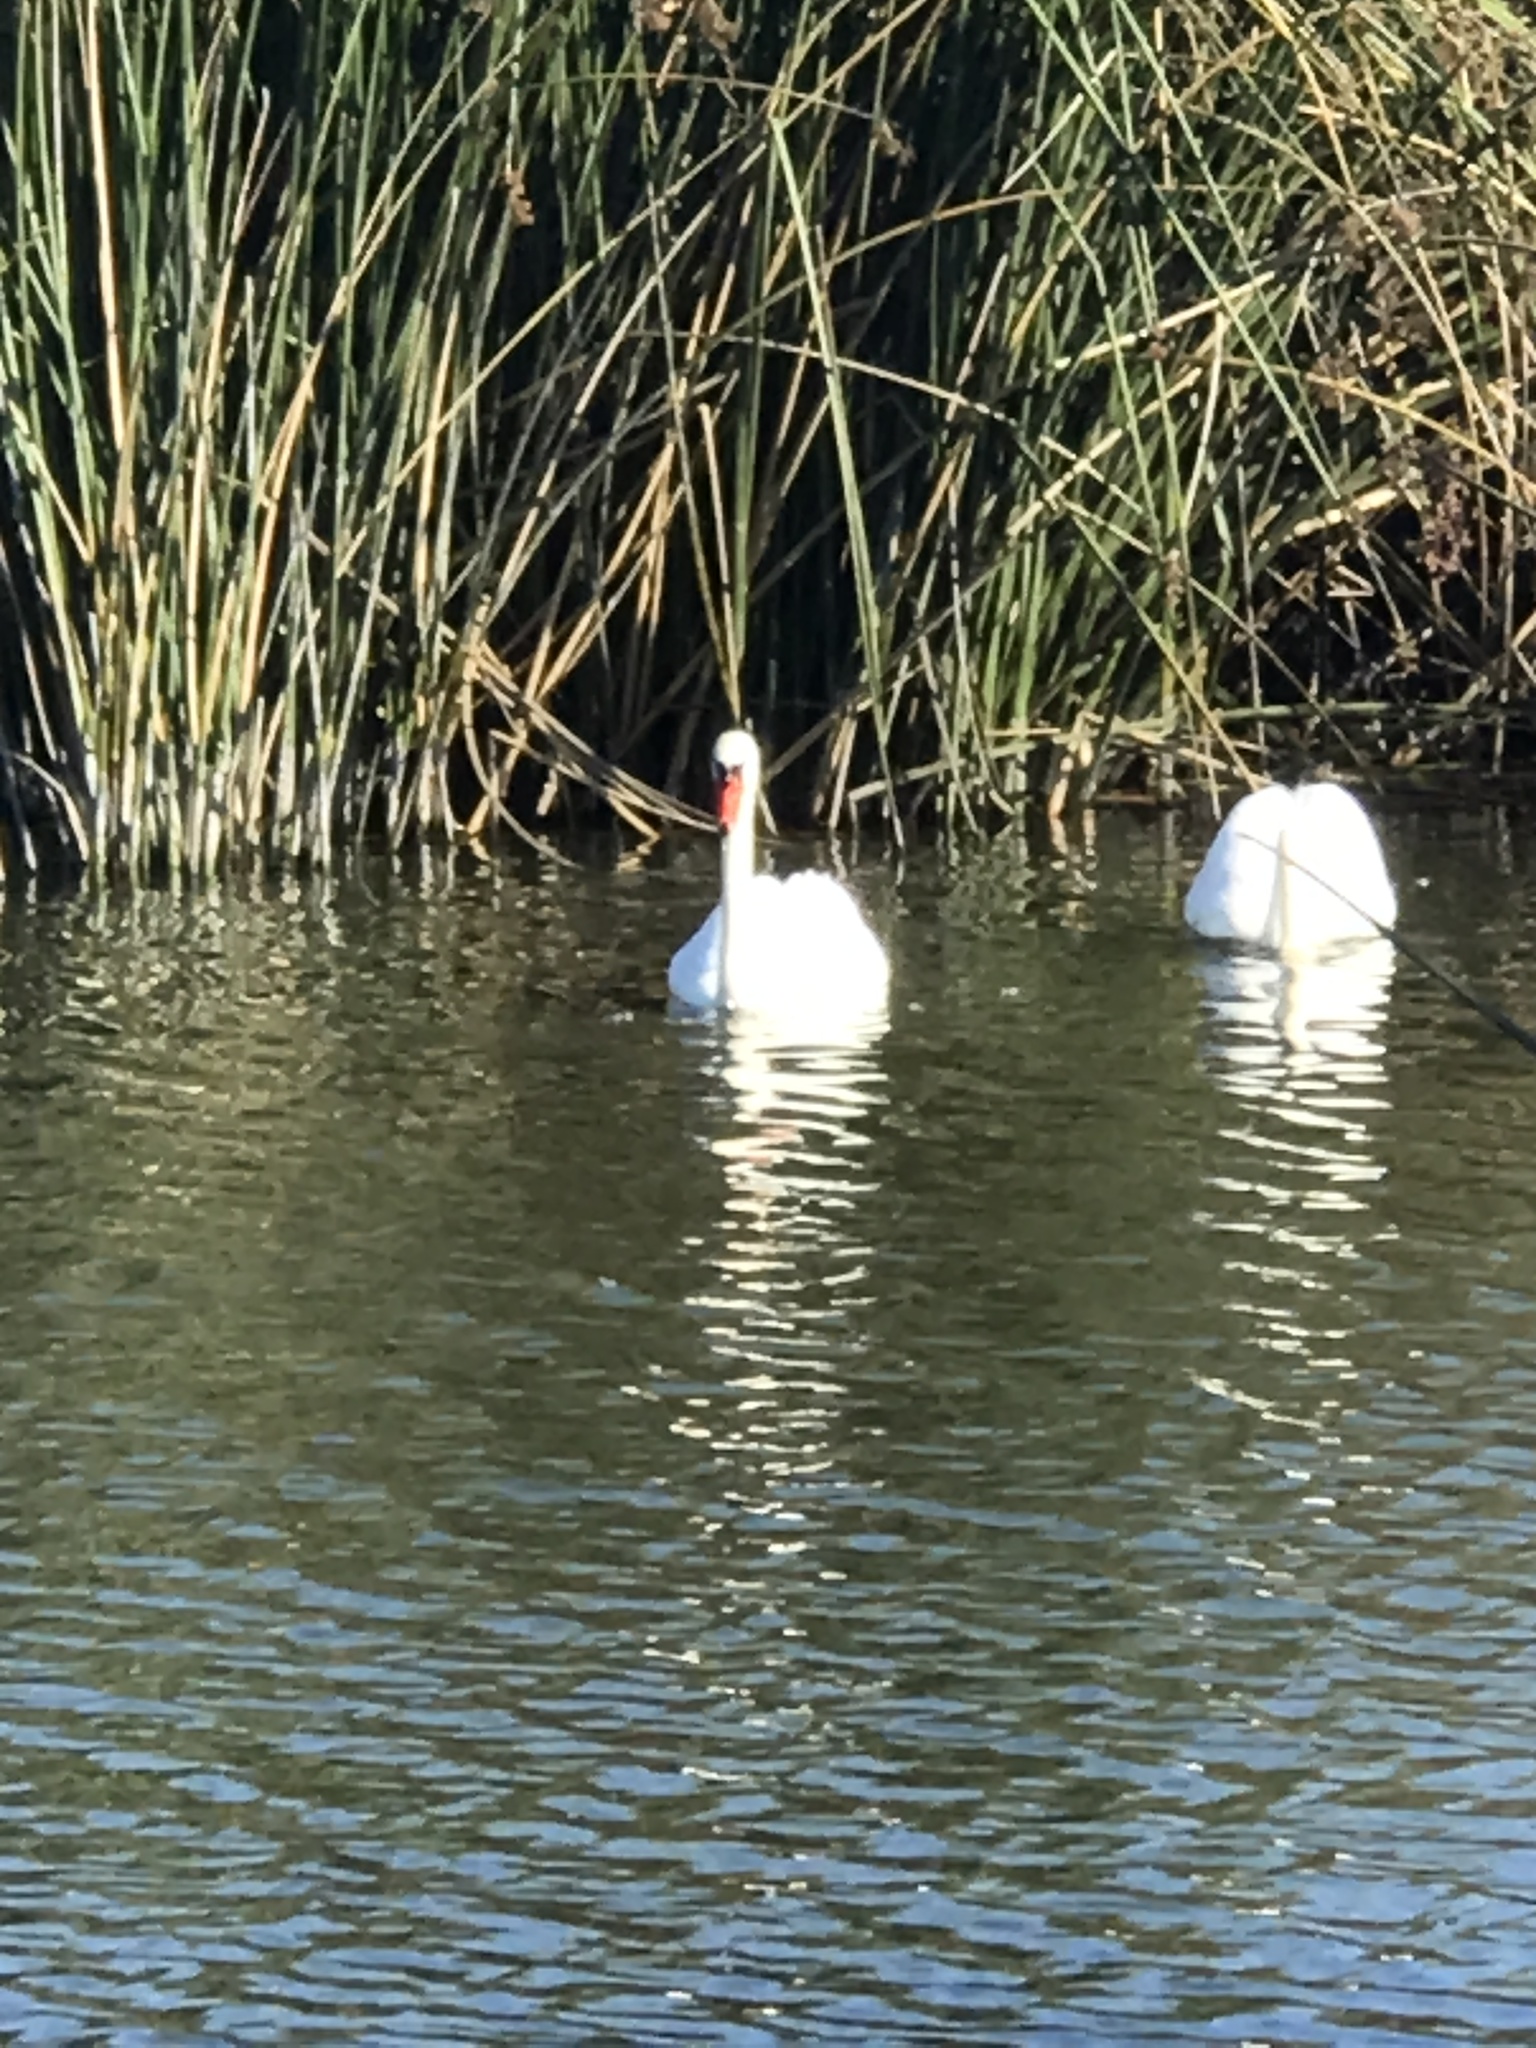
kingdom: Animalia
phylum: Chordata
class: Aves
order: Anseriformes
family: Anatidae
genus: Cygnus
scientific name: Cygnus olor
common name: Mute swan
